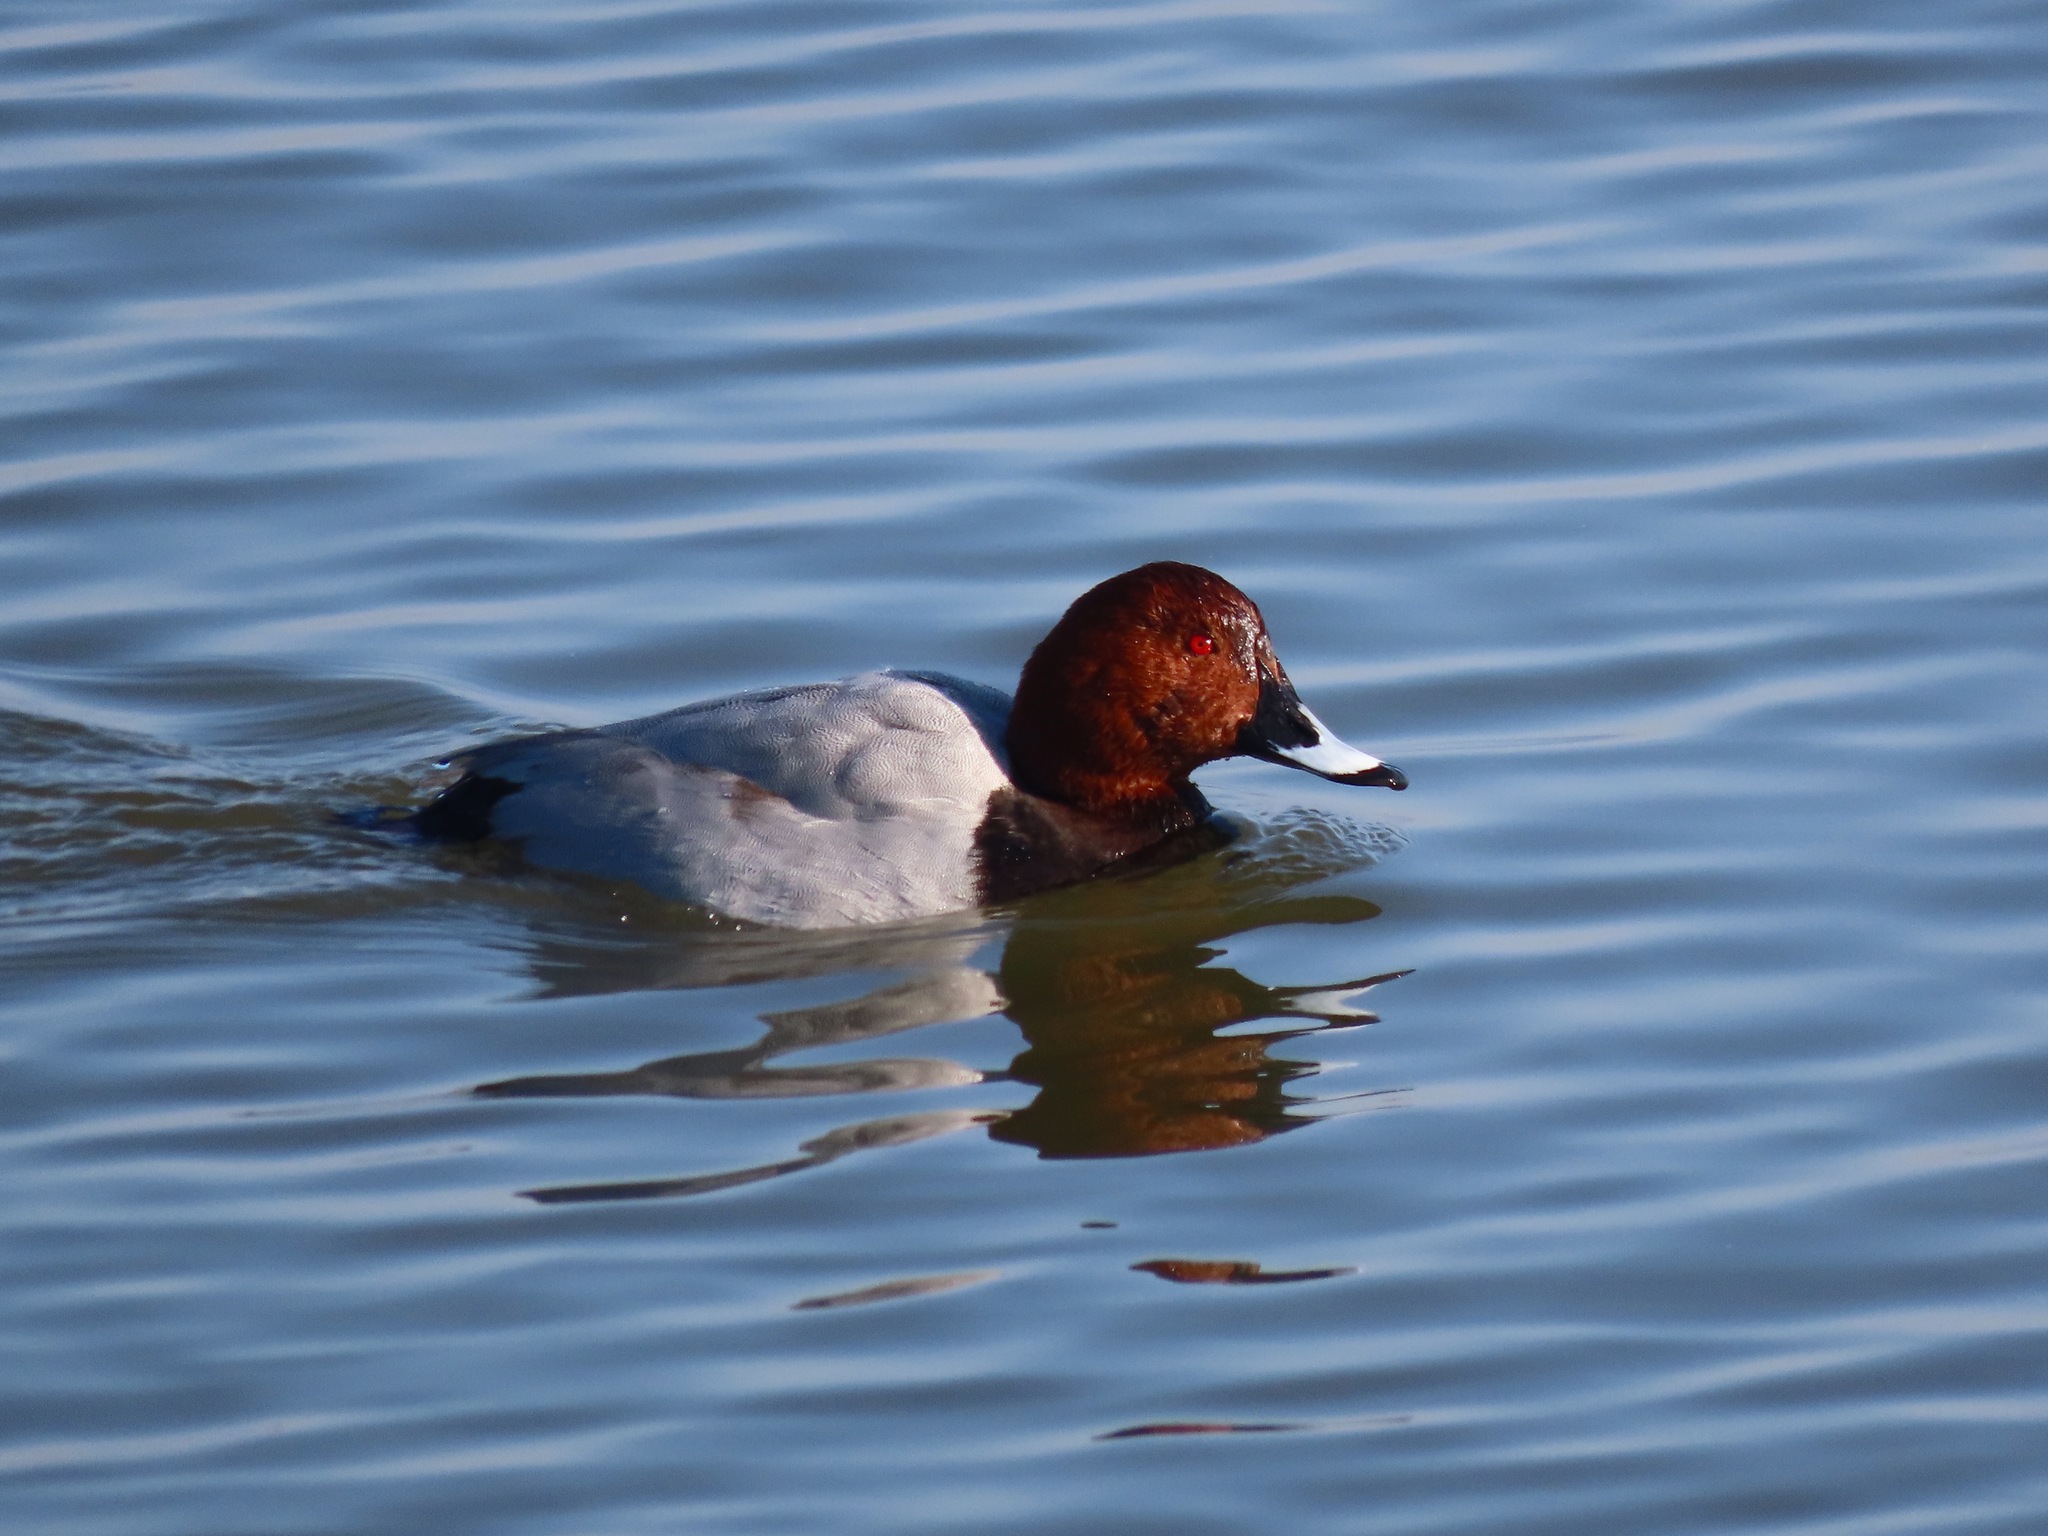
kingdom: Animalia
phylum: Chordata
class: Aves
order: Anseriformes
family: Anatidae
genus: Aythya
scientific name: Aythya ferina
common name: Common pochard
